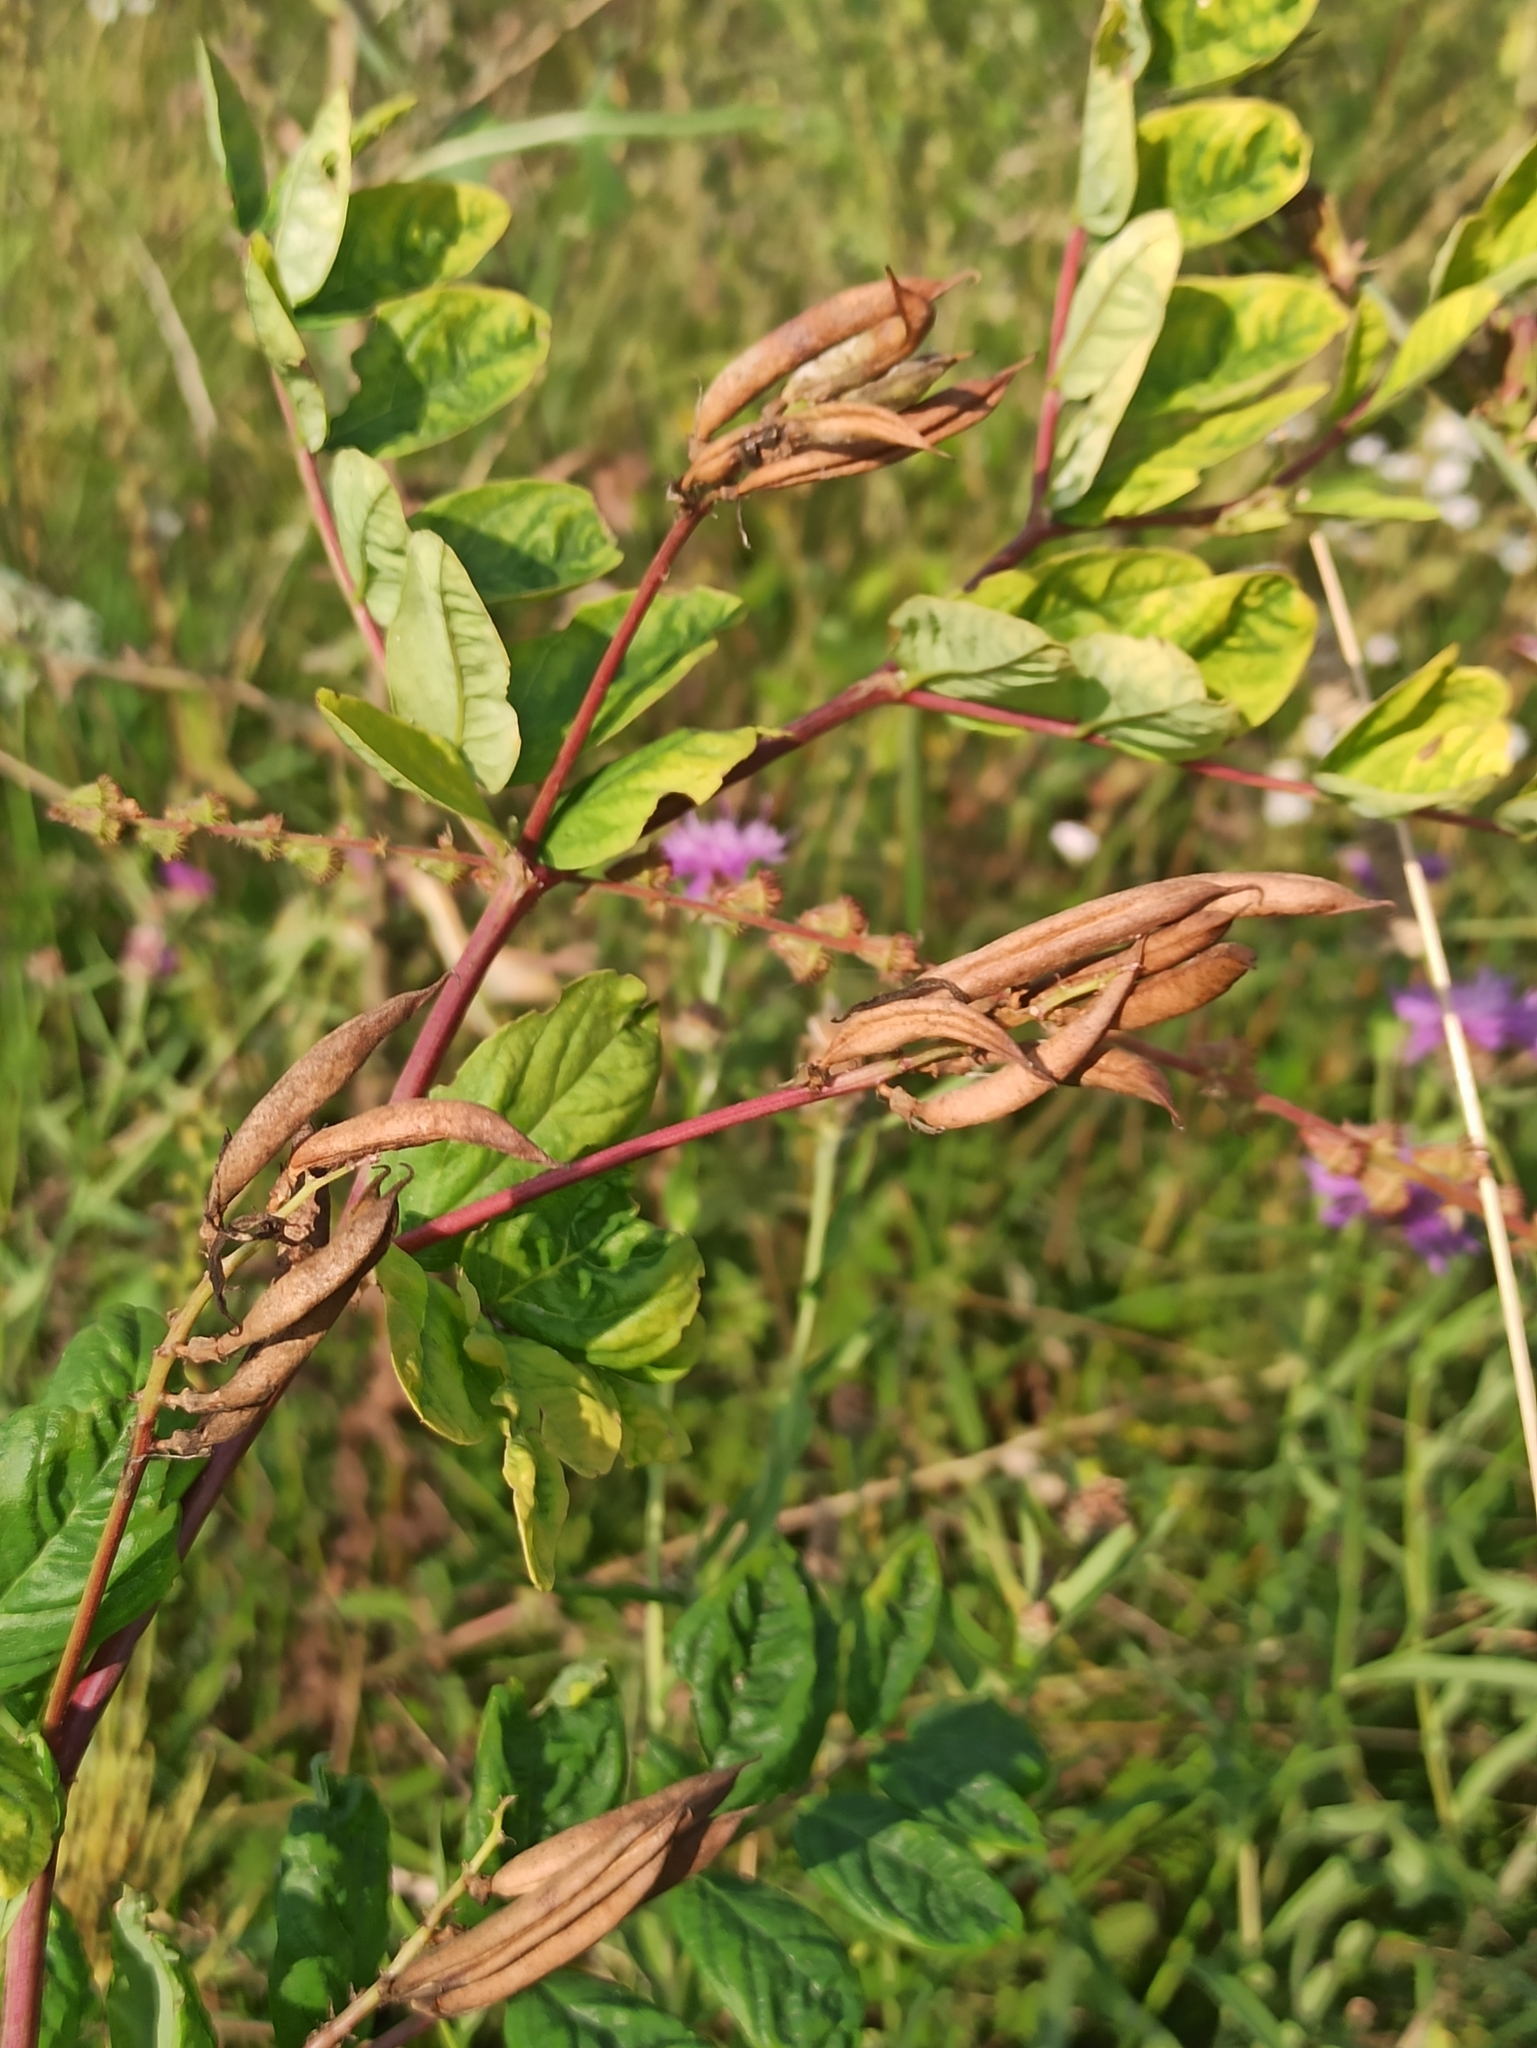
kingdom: Plantae
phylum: Tracheophyta
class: Magnoliopsida
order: Fabales
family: Fabaceae
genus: Astragalus
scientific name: Astragalus glycyphyllos
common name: Wild liquorice
